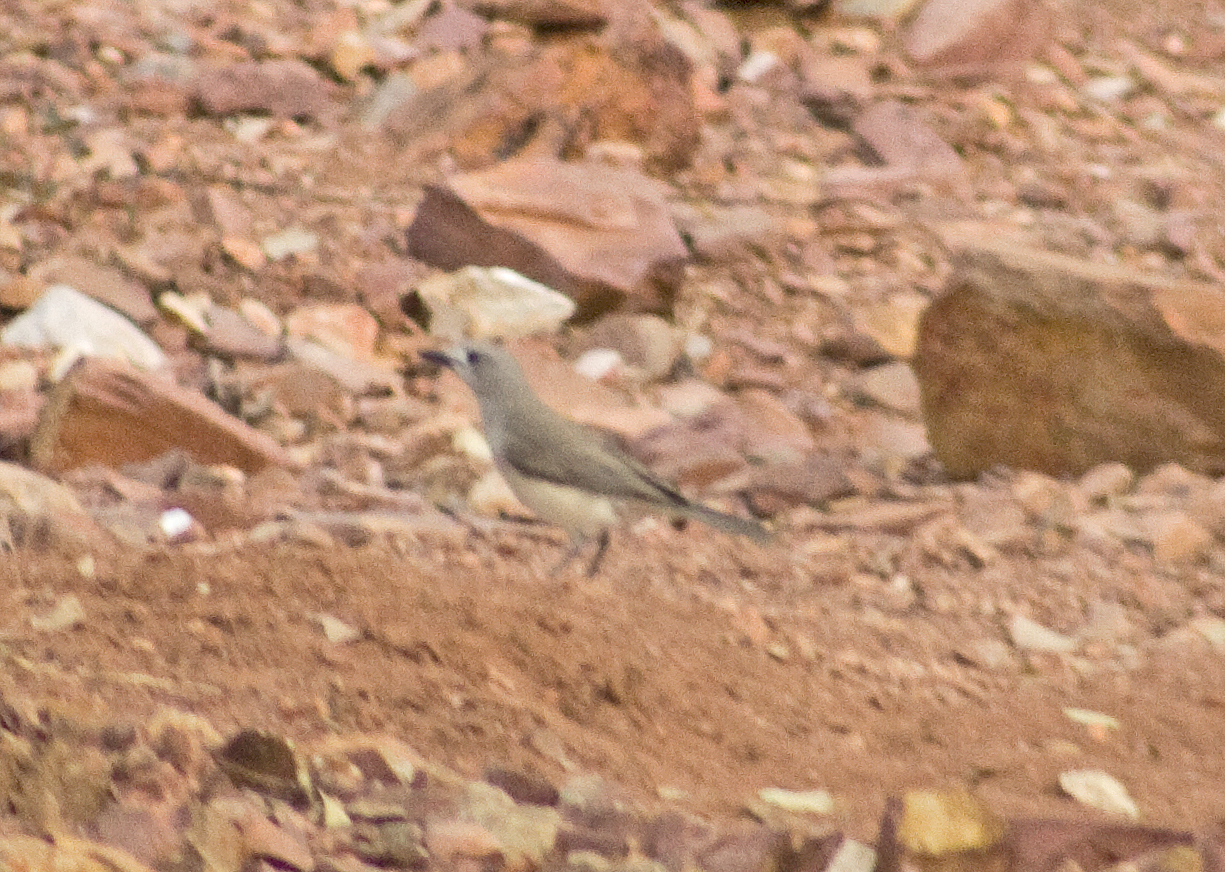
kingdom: Animalia
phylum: Chordata
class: Aves
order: Passeriformes
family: Pachycephalidae
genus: Colluricincla
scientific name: Colluricincla harmonica
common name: Grey shrikethrush
